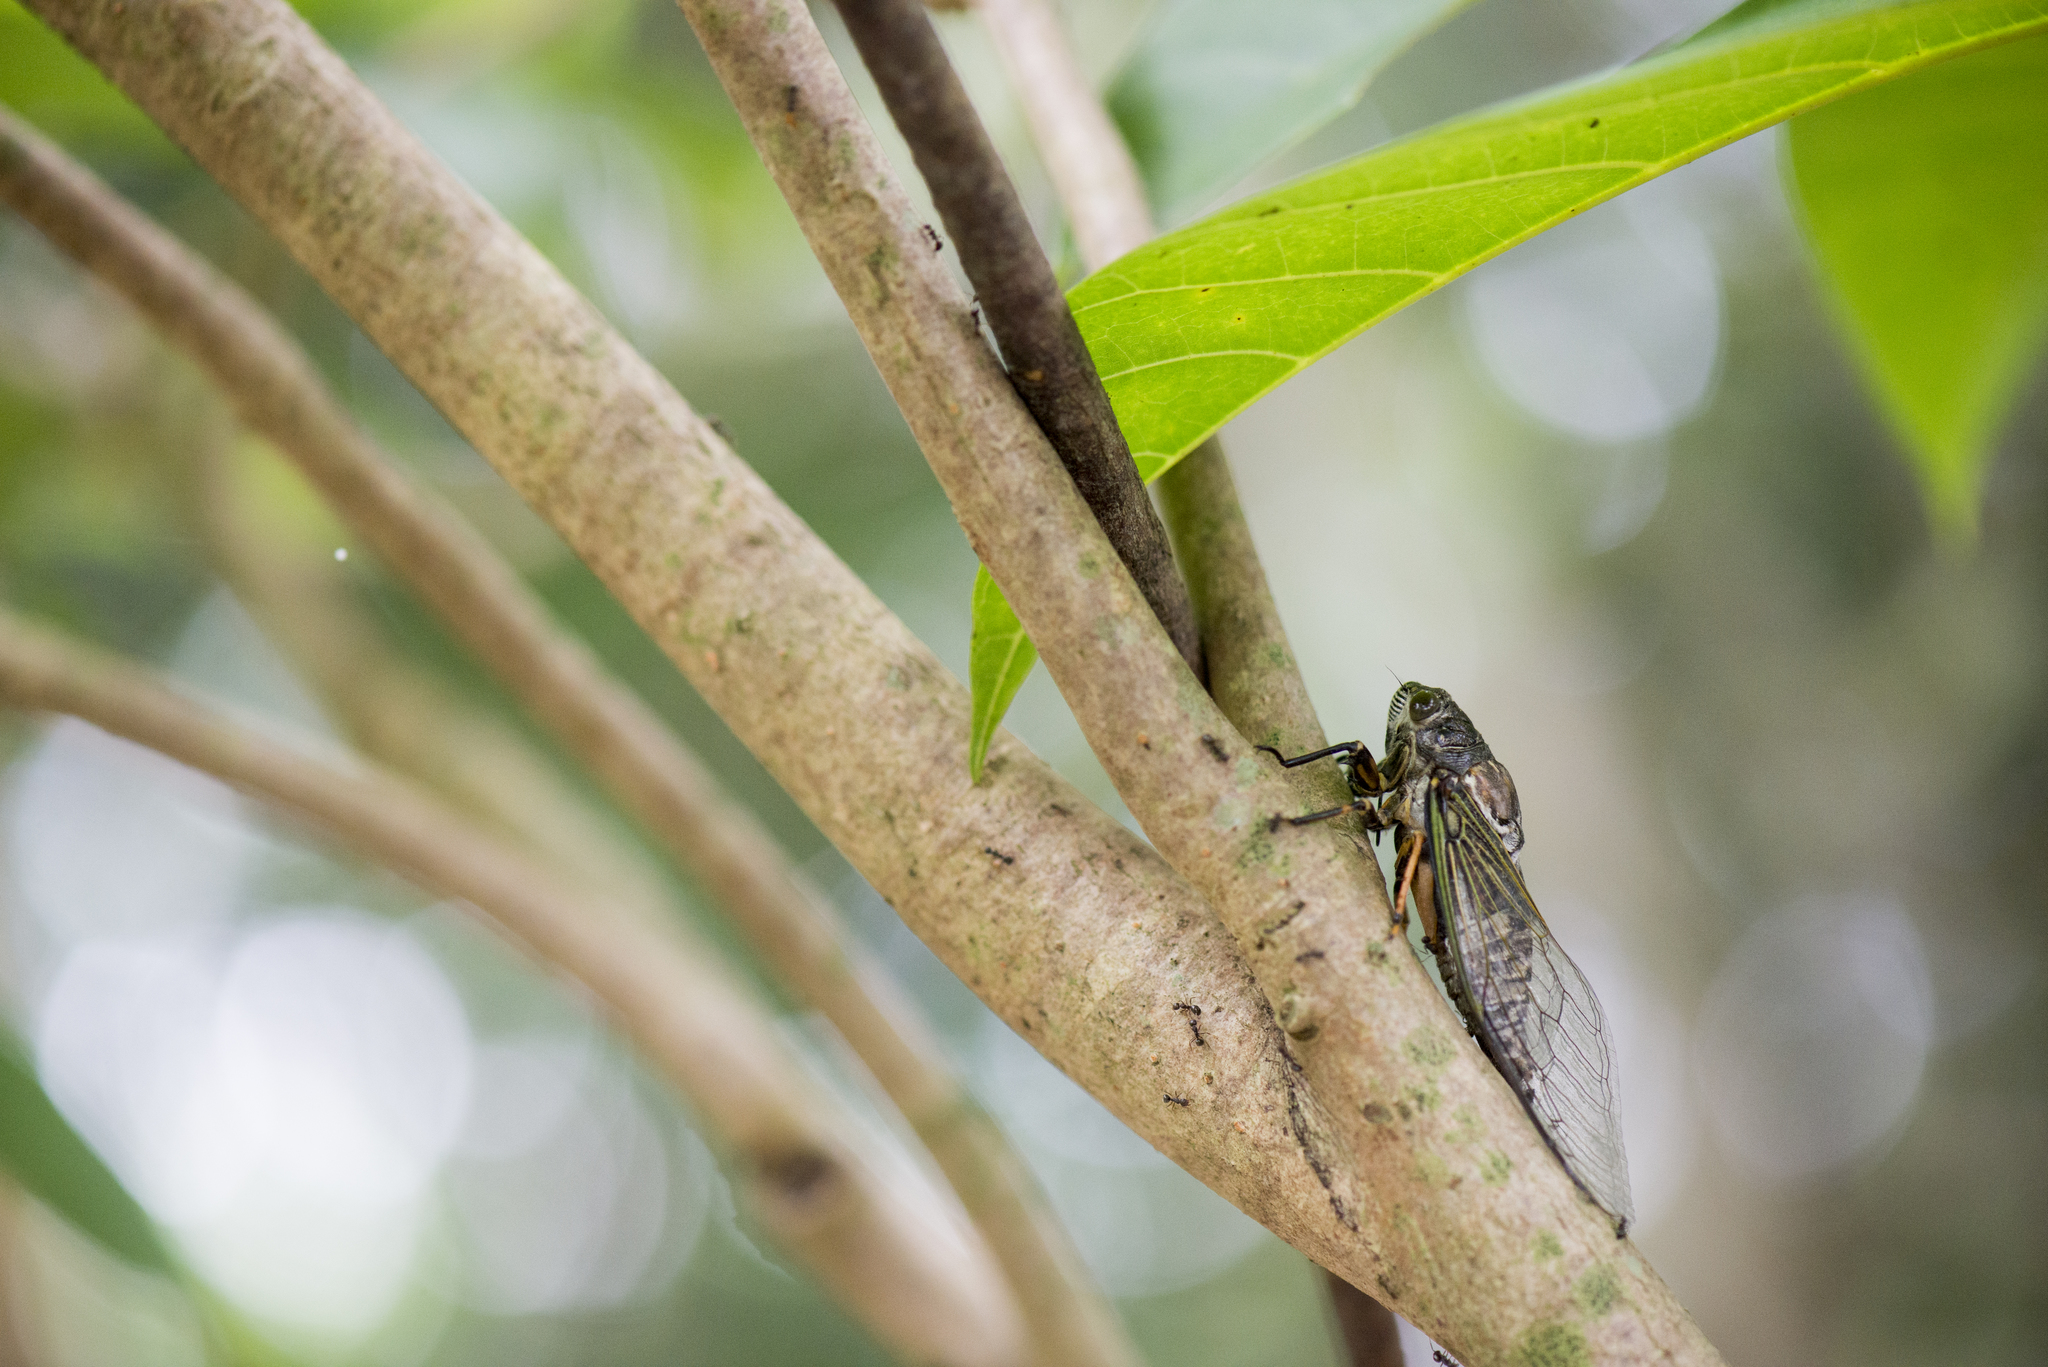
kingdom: Animalia
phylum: Arthropoda
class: Insecta
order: Hemiptera
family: Cicadidae
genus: Cryptotympana
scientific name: Cryptotympana takasagona
